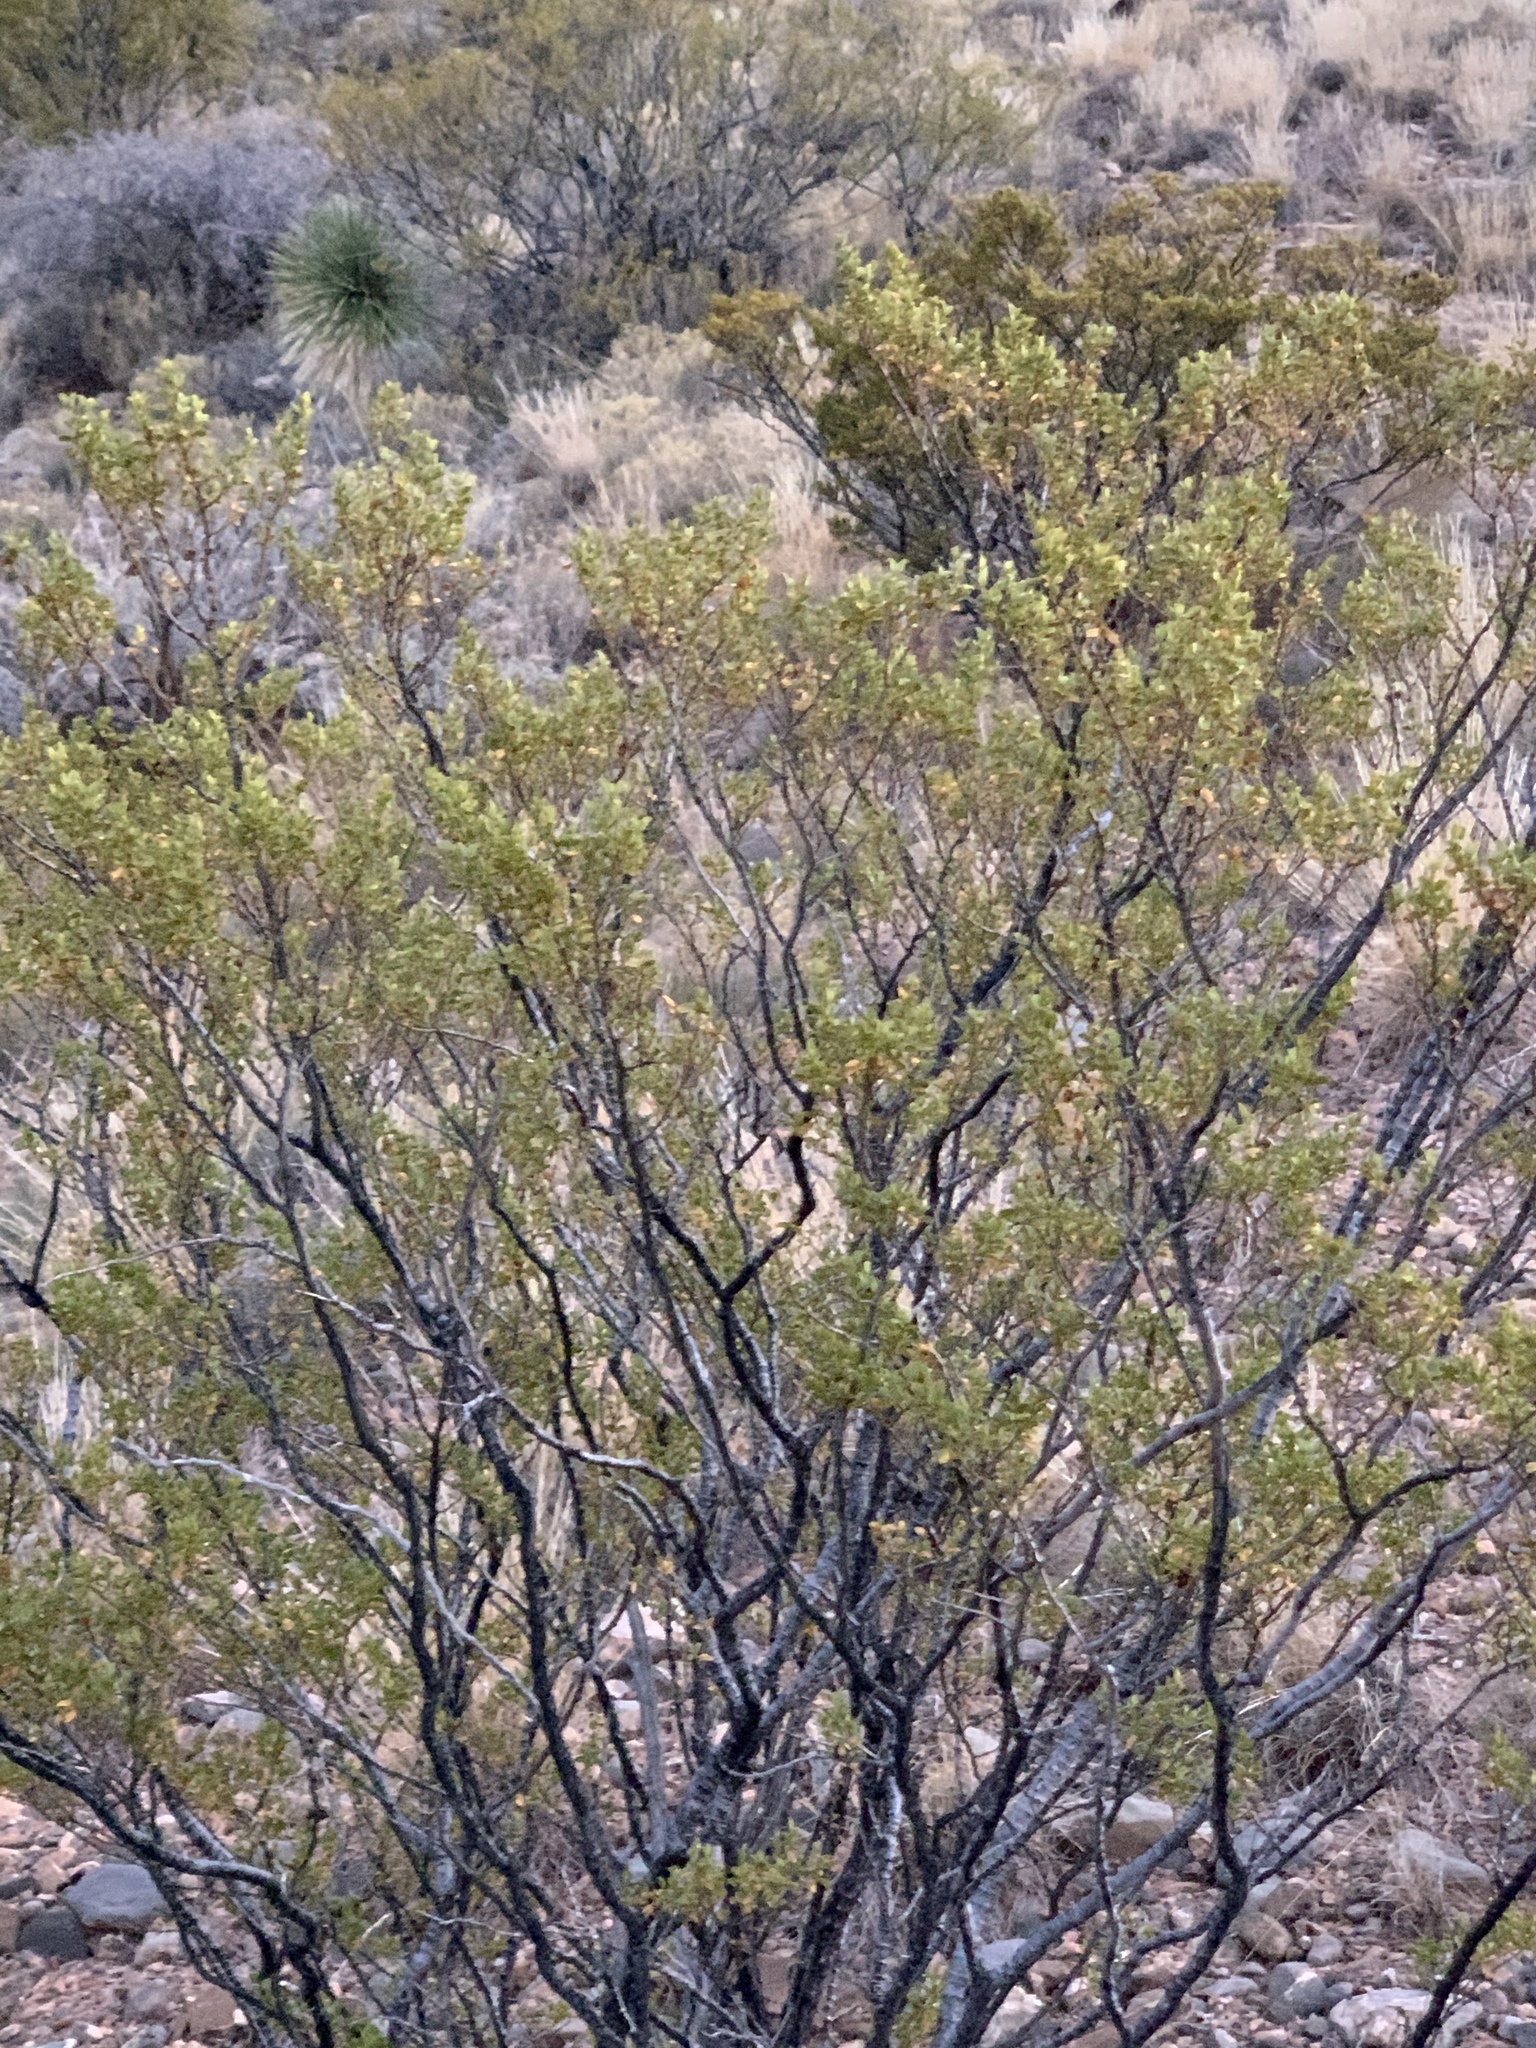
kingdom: Plantae
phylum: Tracheophyta
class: Magnoliopsida
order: Zygophyllales
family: Zygophyllaceae
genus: Larrea
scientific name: Larrea tridentata
